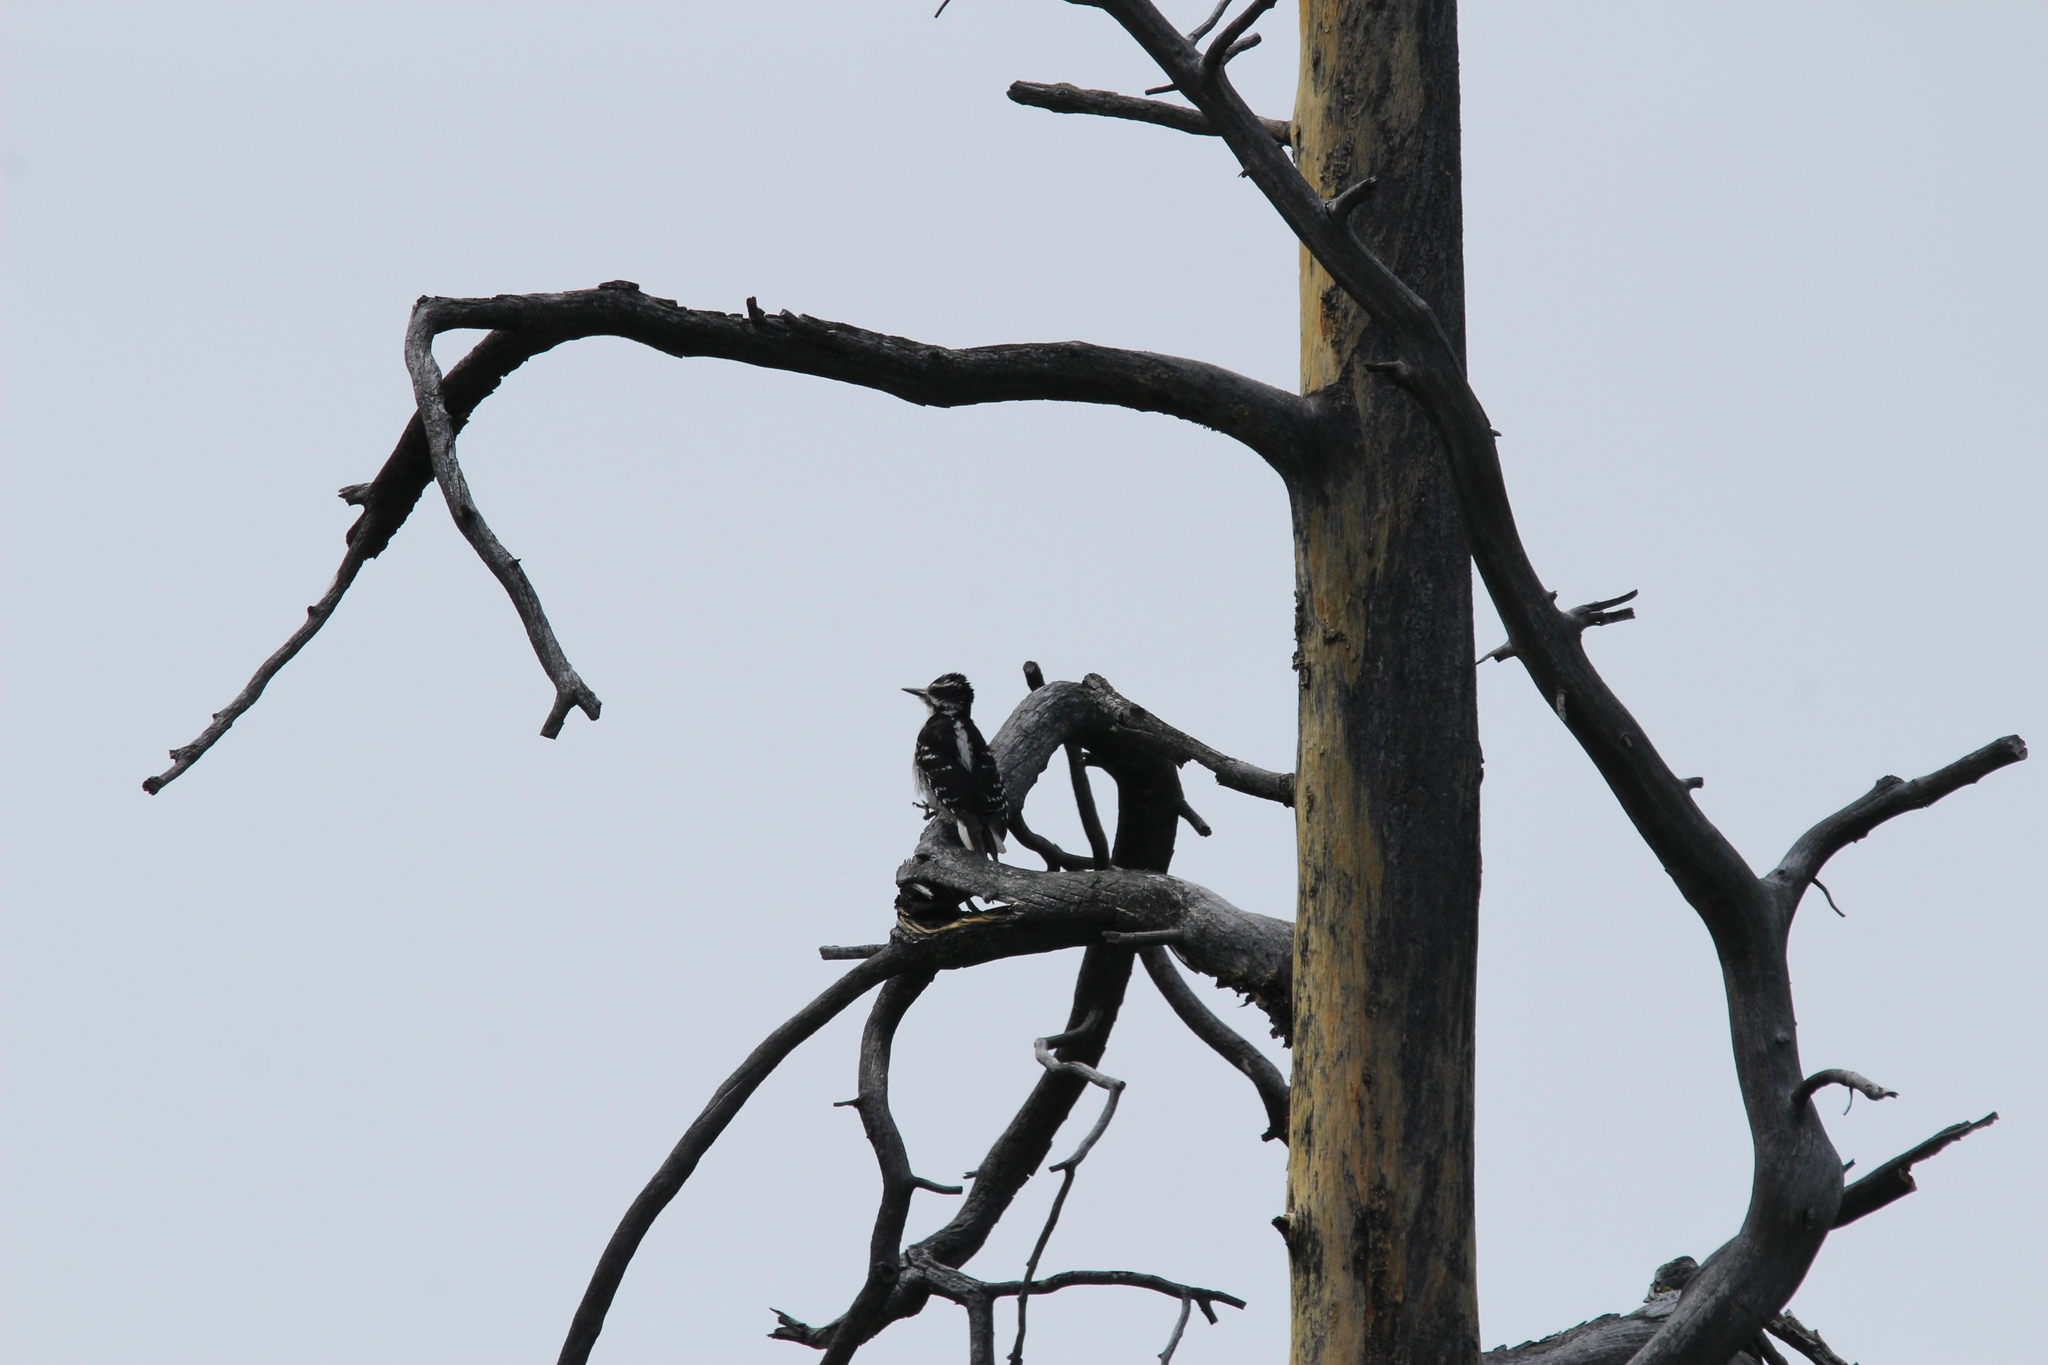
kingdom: Animalia
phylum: Chordata
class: Aves
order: Piciformes
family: Picidae
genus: Leuconotopicus
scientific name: Leuconotopicus villosus
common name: Hairy woodpecker
